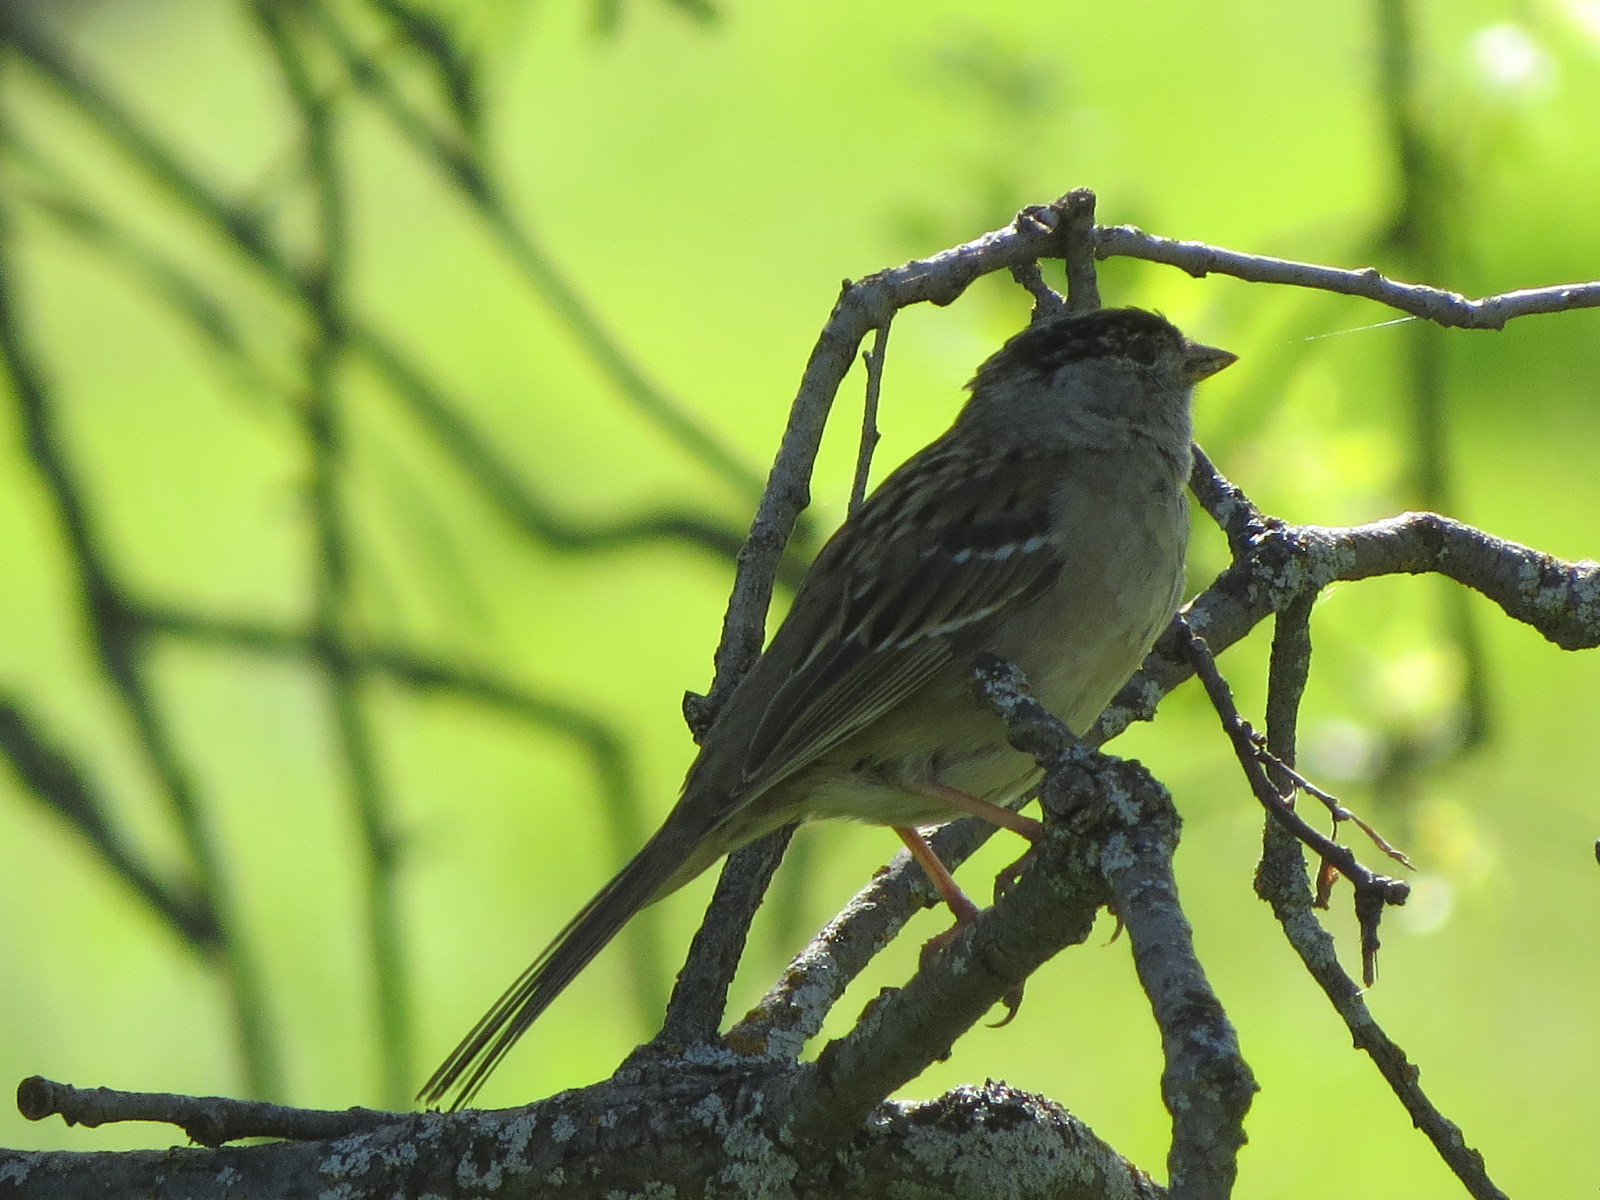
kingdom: Animalia
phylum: Chordata
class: Aves
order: Passeriformes
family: Passerellidae
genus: Zonotrichia
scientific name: Zonotrichia atricapilla
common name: Golden-crowned sparrow
